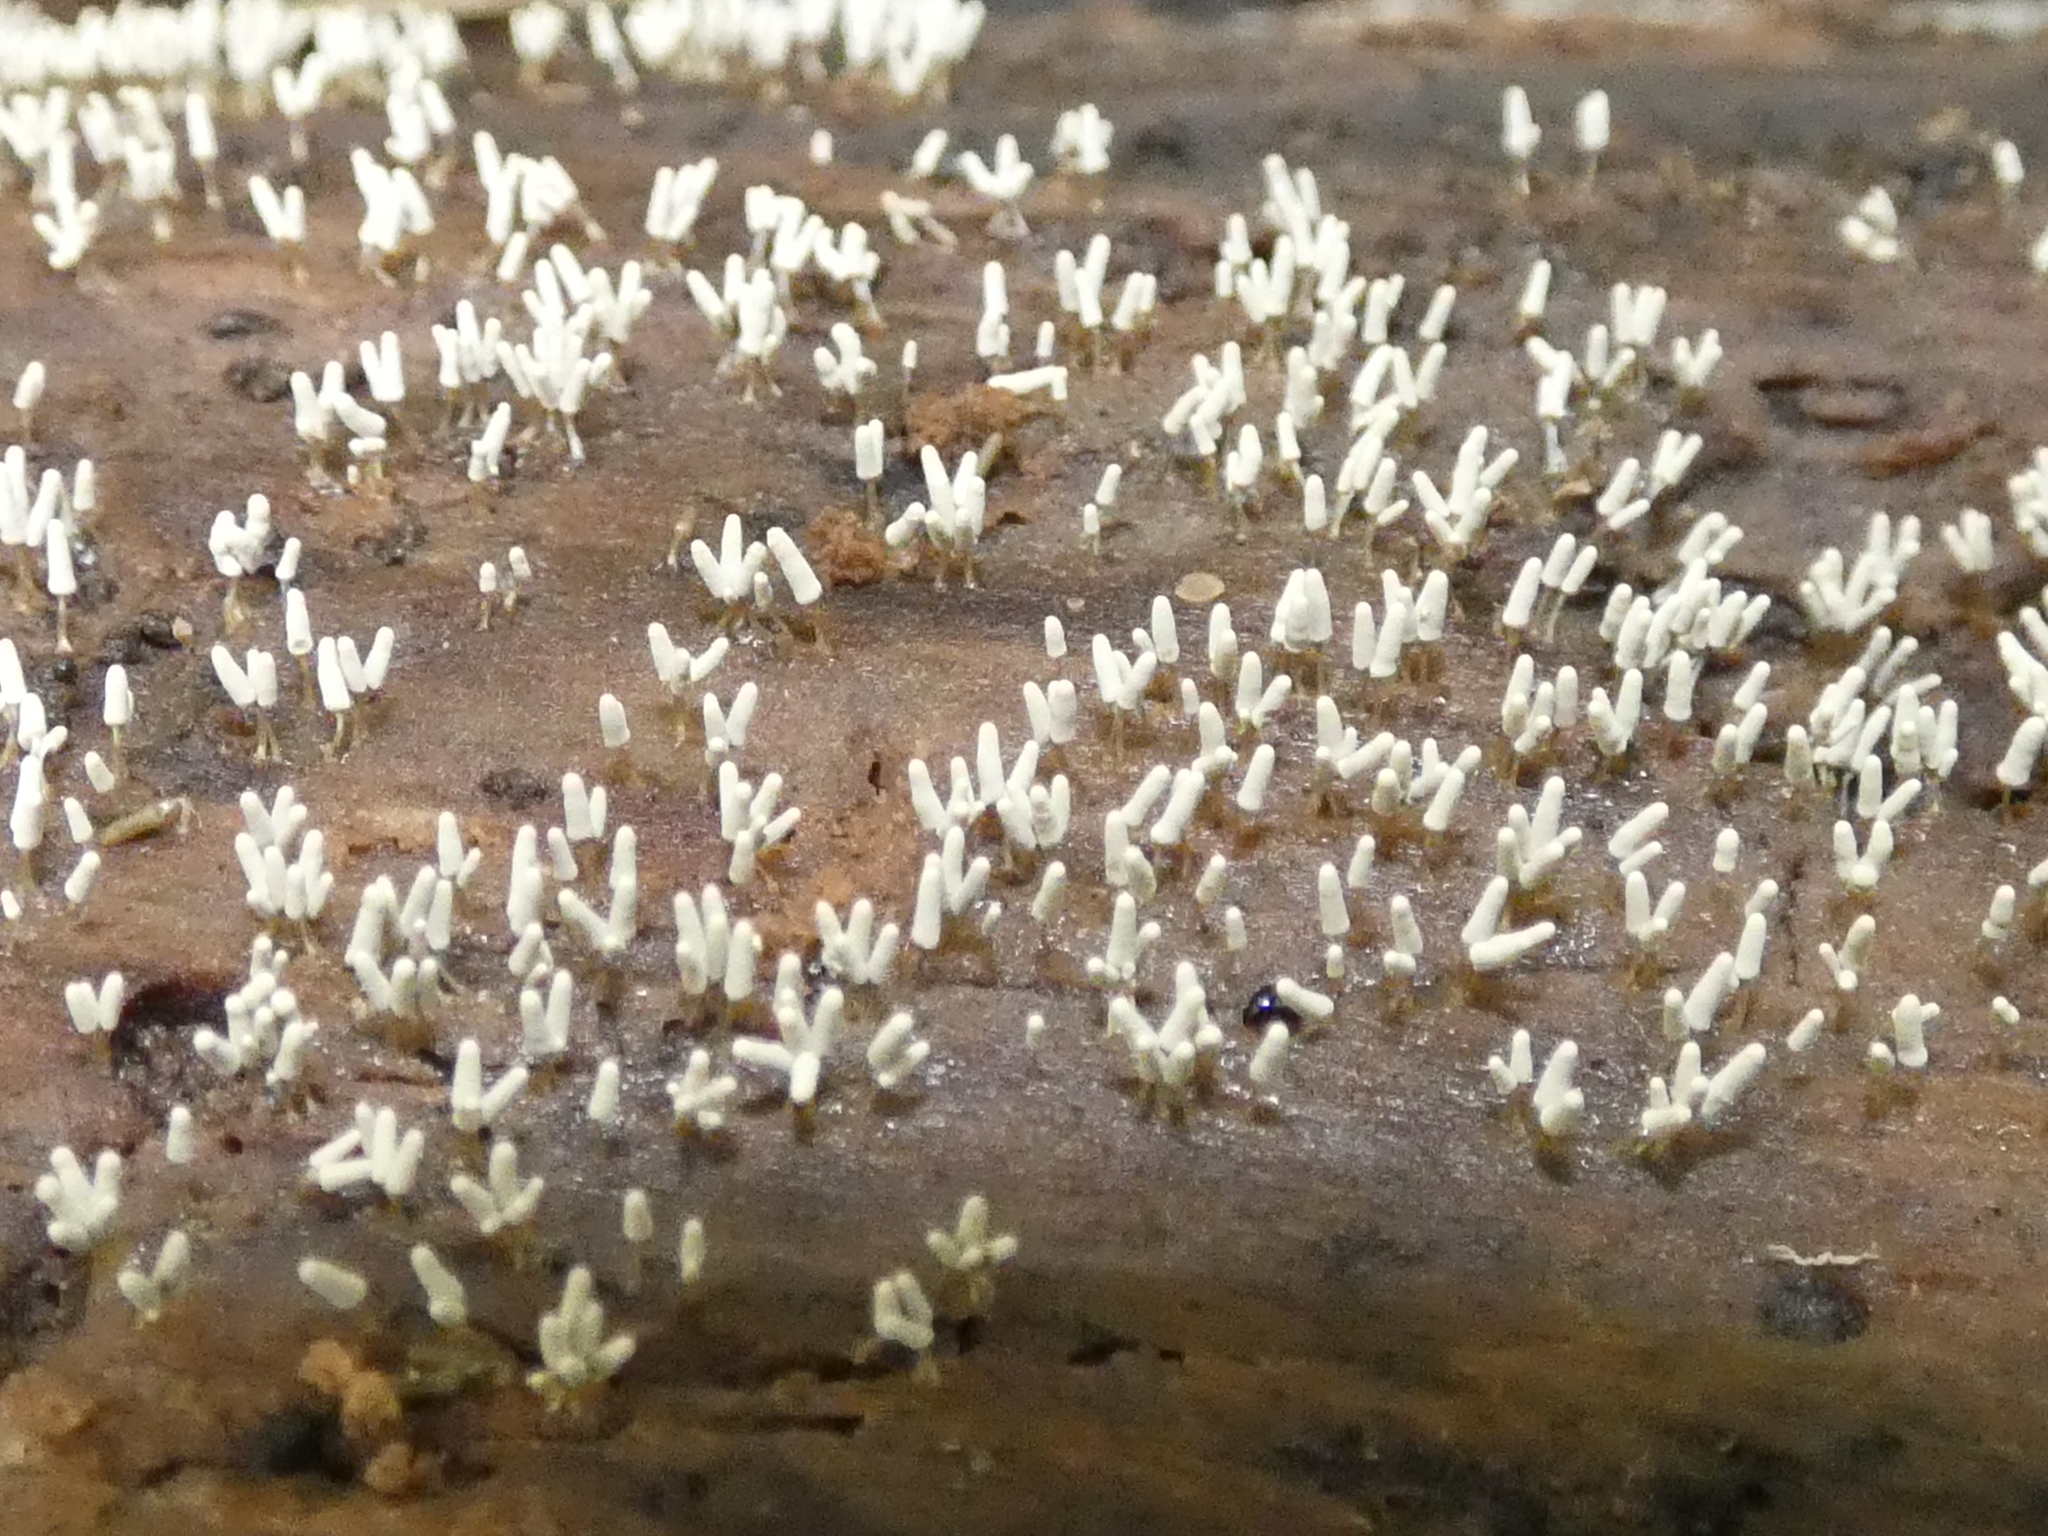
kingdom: Protozoa
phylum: Mycetozoa
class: Myxomycetes
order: Trichiales
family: Arcyriaceae
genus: Arcyria
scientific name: Arcyria cinerea
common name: White carnival candy slime mold
